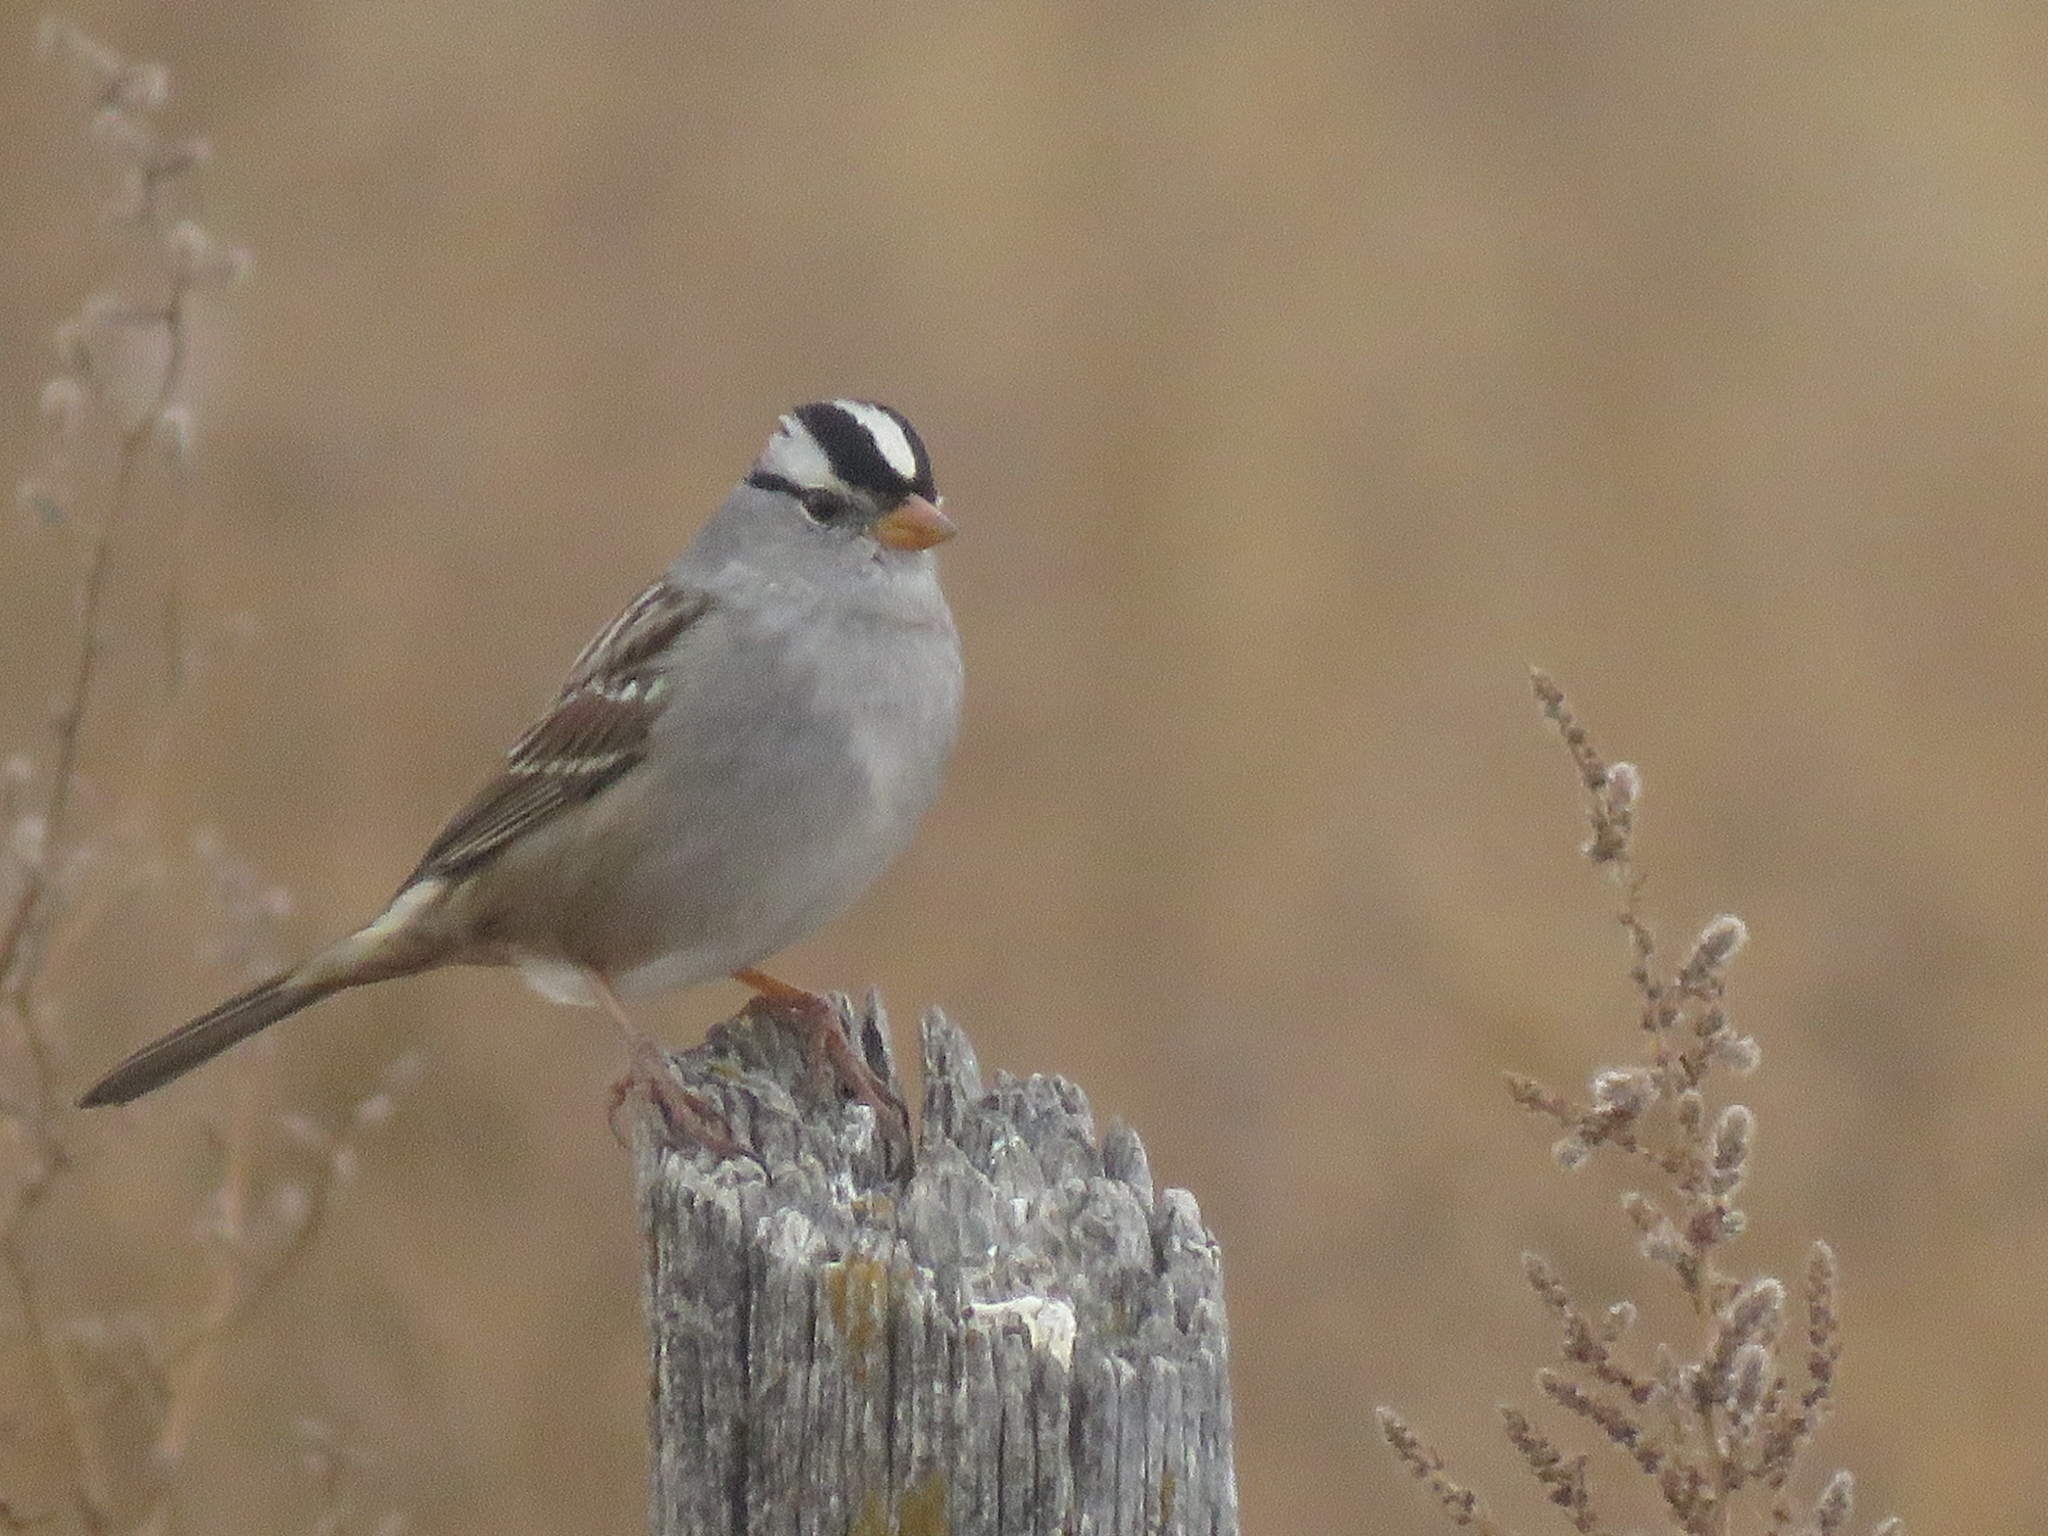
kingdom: Animalia
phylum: Chordata
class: Aves
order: Passeriformes
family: Passerellidae
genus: Zonotrichia
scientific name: Zonotrichia leucophrys
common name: White-crowned sparrow
